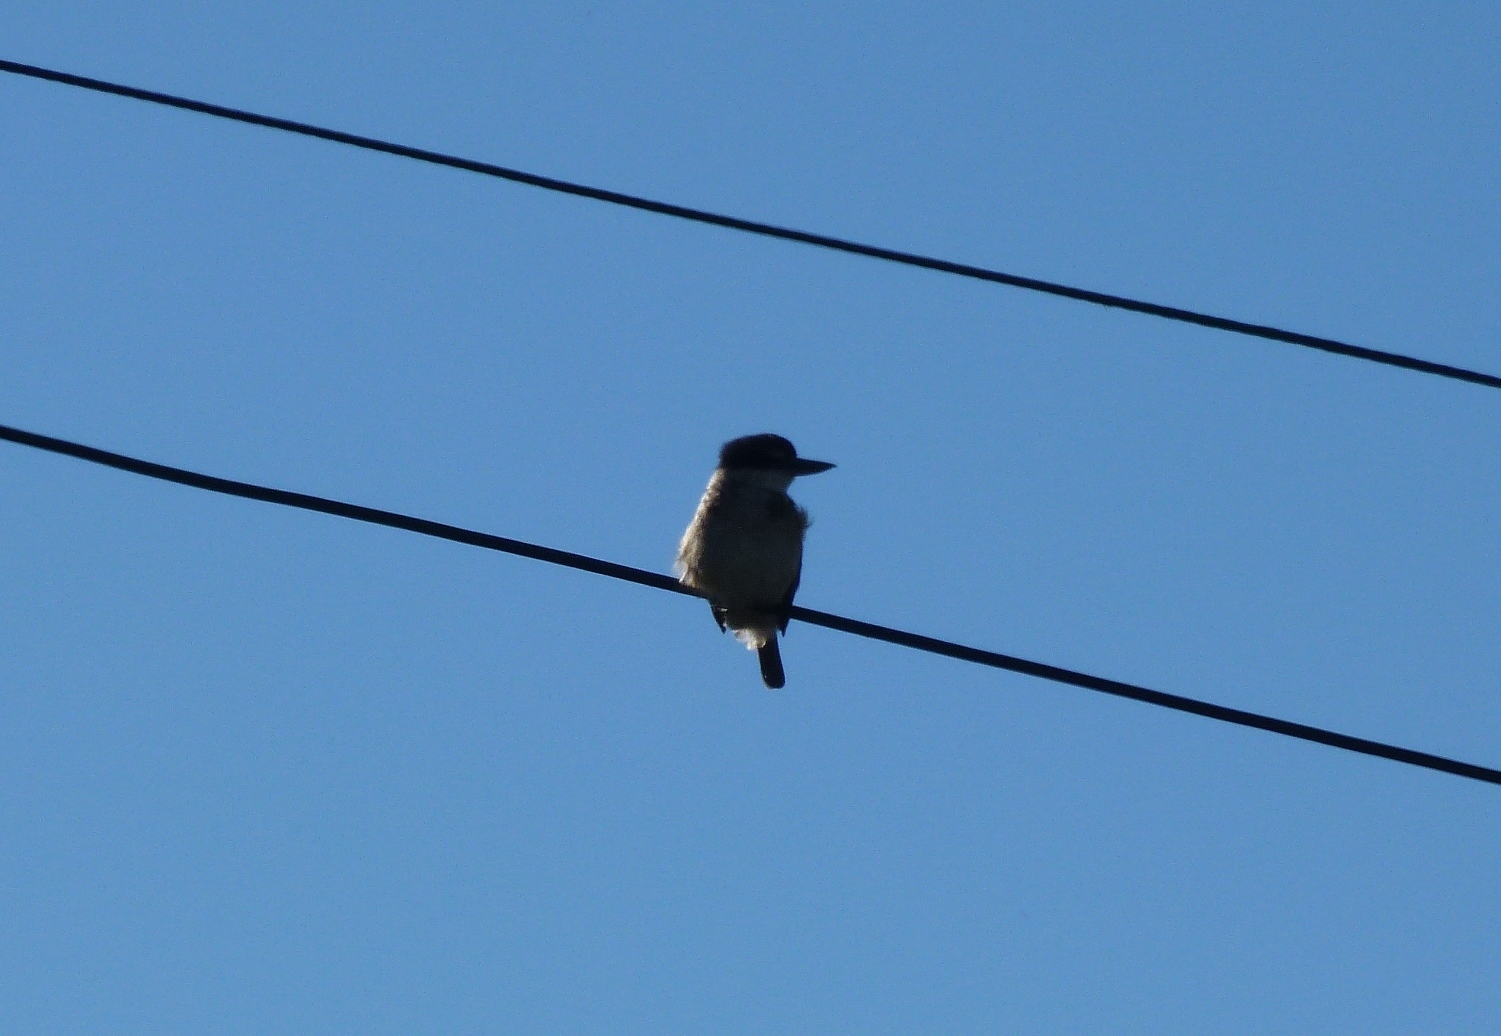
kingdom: Animalia
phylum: Chordata
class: Aves
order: Coraciiformes
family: Alcedinidae
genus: Todiramphus
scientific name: Todiramphus sanctus
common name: Sacred kingfisher
